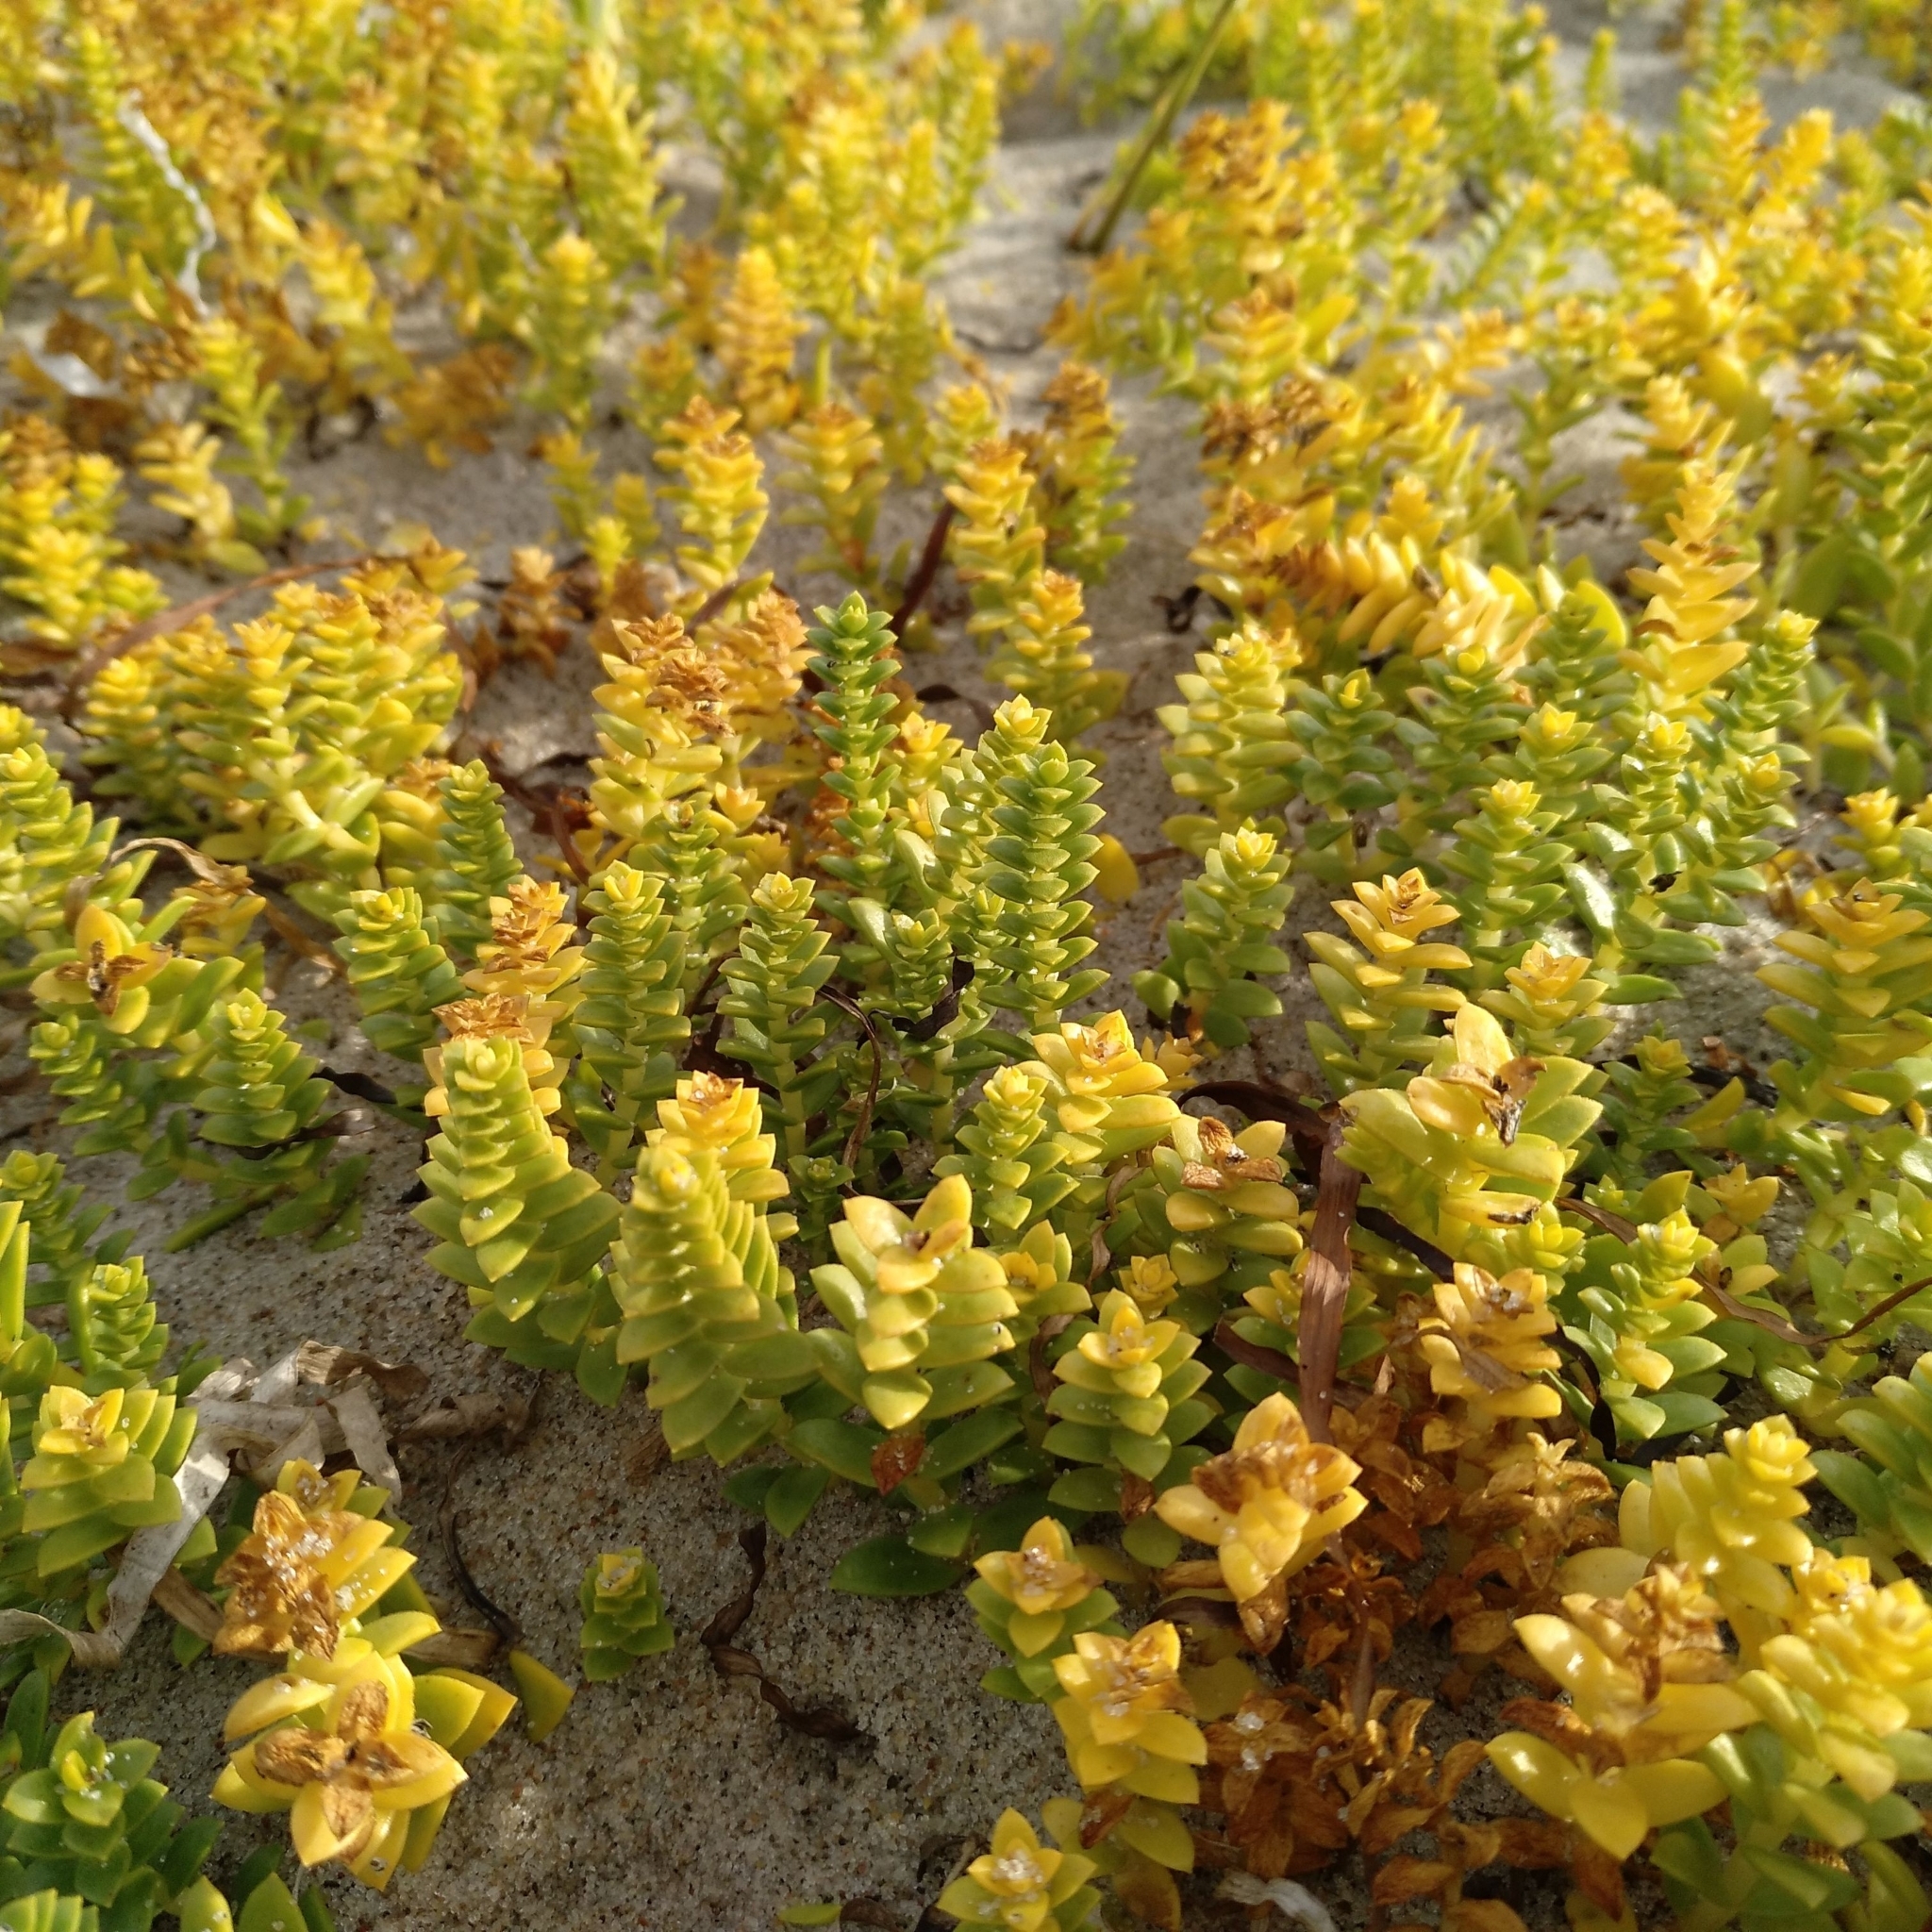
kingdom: Plantae
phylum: Tracheophyta
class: Magnoliopsida
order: Caryophyllales
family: Caryophyllaceae
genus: Honckenya
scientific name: Honckenya peploides
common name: Sea sandwort
